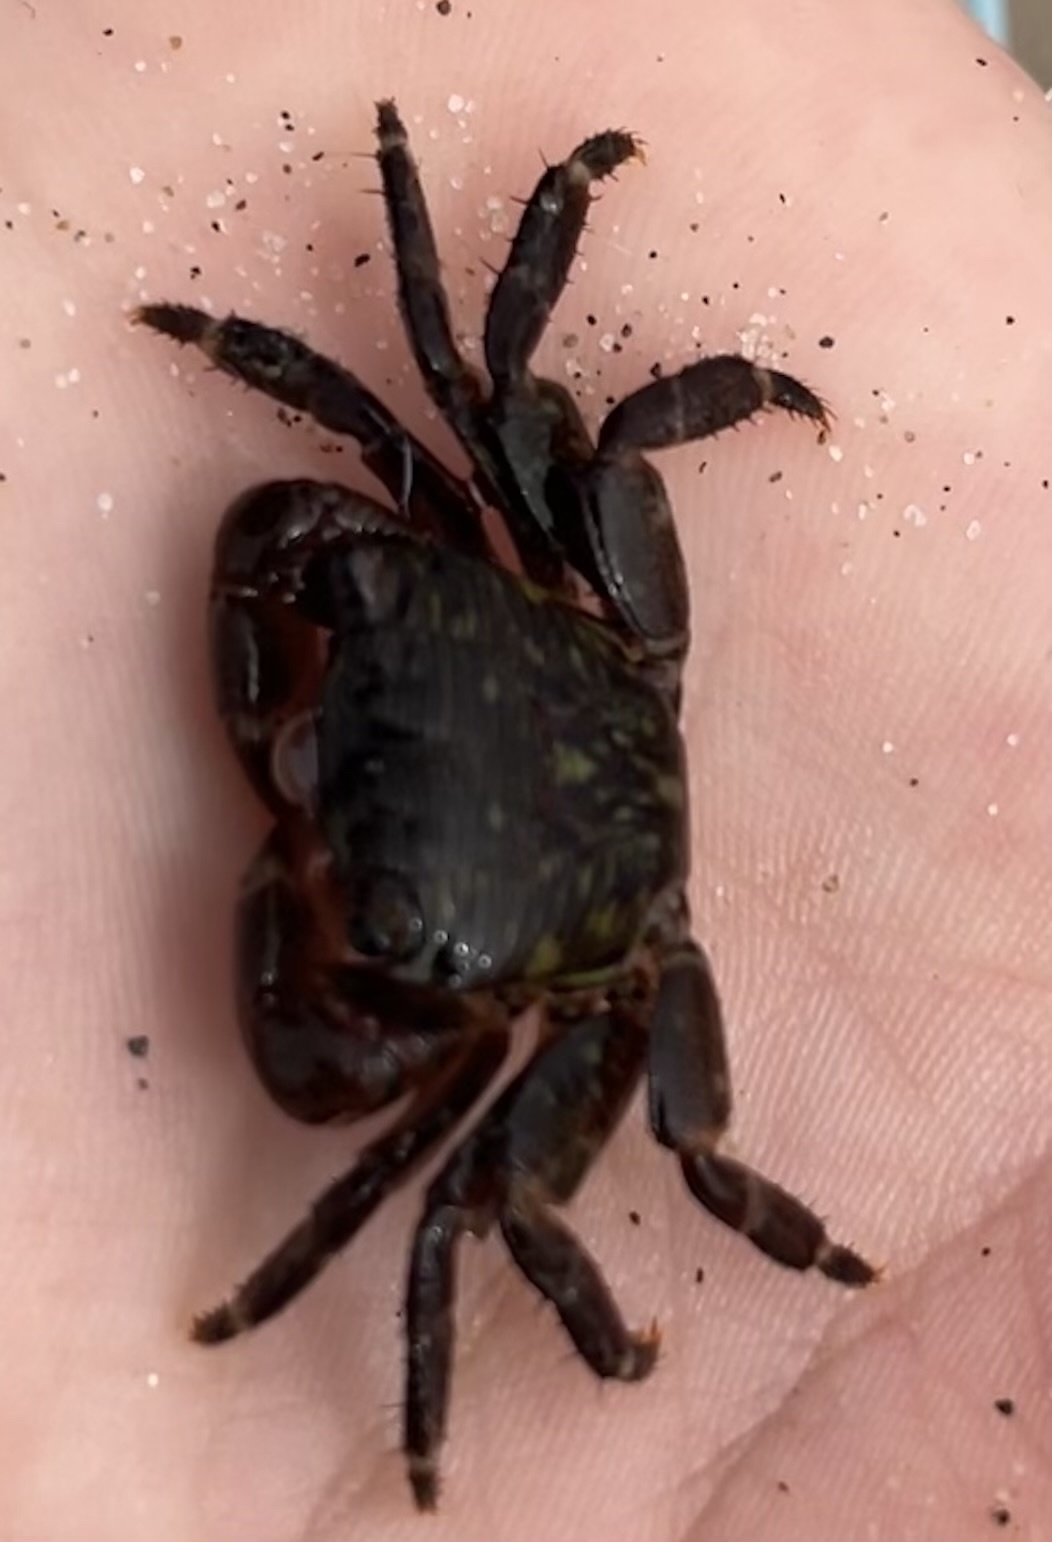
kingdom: Animalia
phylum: Arthropoda
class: Malacostraca
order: Decapoda
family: Grapsidae
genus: Pachygrapsus
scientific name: Pachygrapsus crassipes
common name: Striped shore crab
